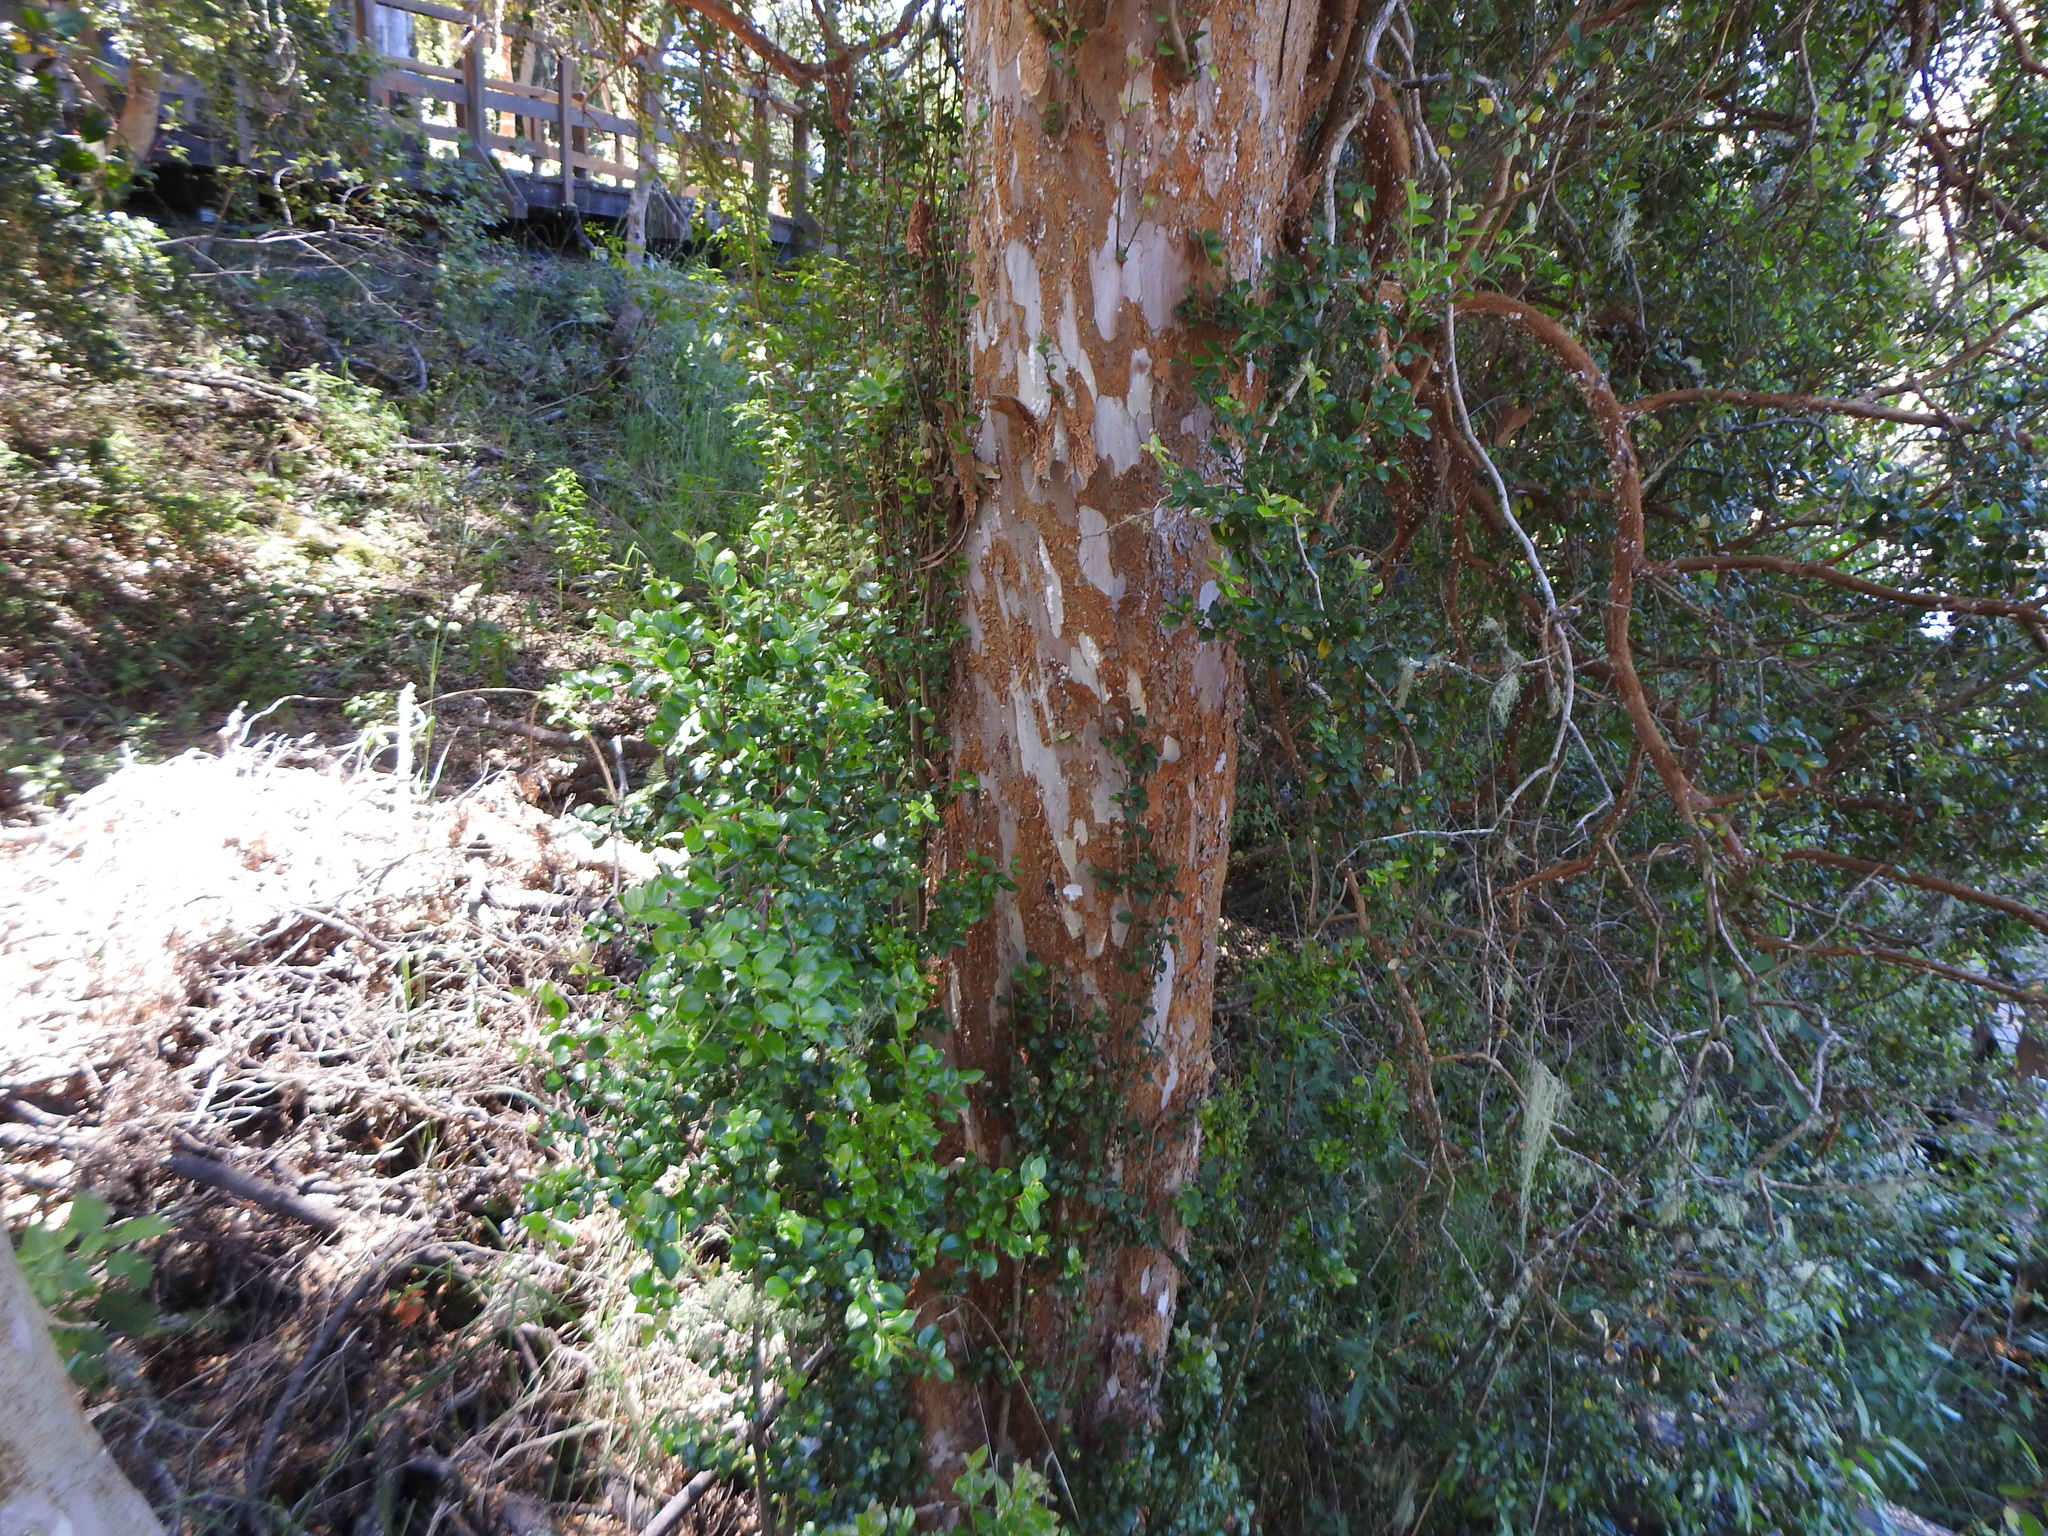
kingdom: Plantae
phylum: Tracheophyta
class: Magnoliopsida
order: Myrtales
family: Myrtaceae
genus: Luma
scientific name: Luma apiculata
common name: Chilean myrtle
